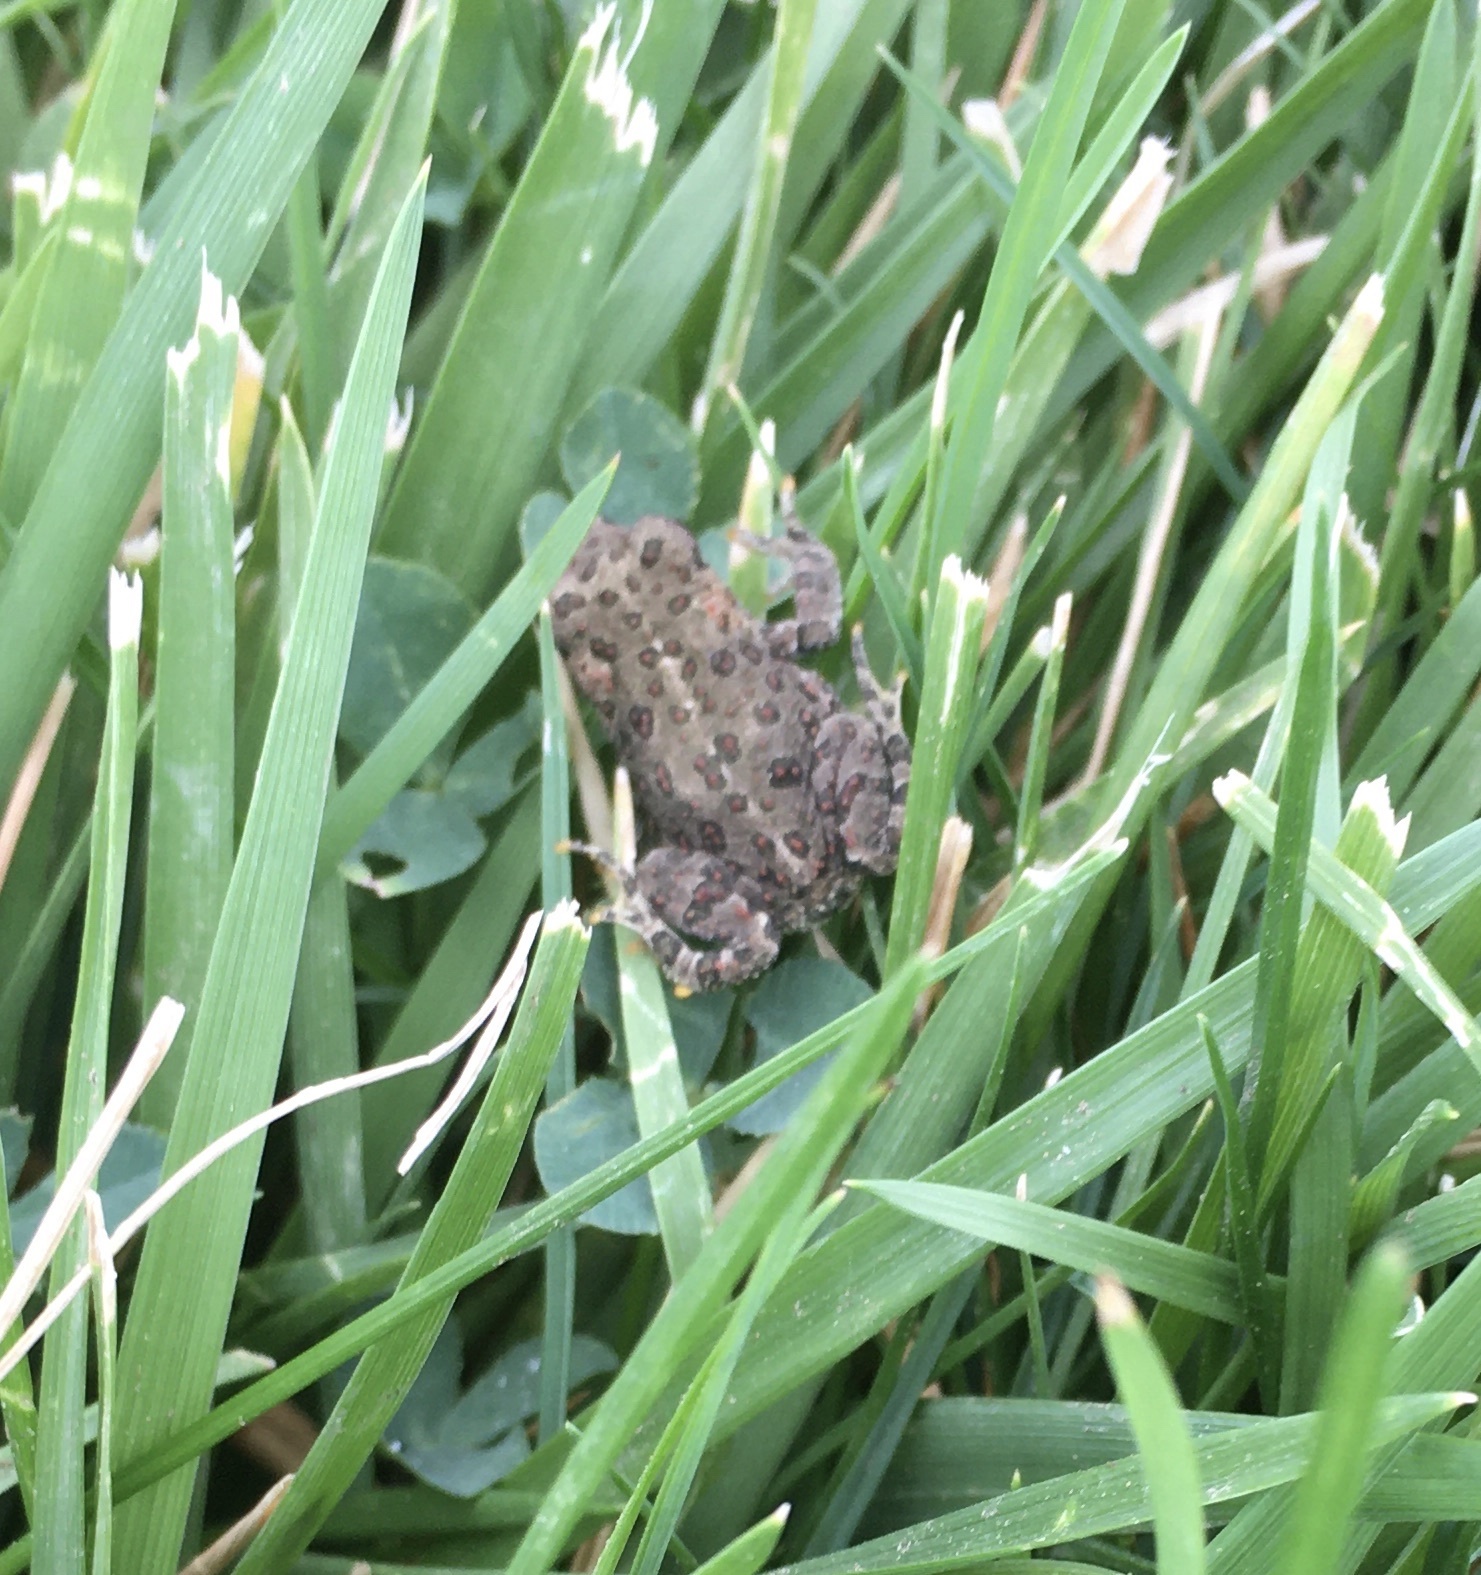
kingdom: Animalia
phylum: Chordata
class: Amphibia
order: Anura
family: Bufonidae
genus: Anaxyrus
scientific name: Anaxyrus boreas
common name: Western toad
